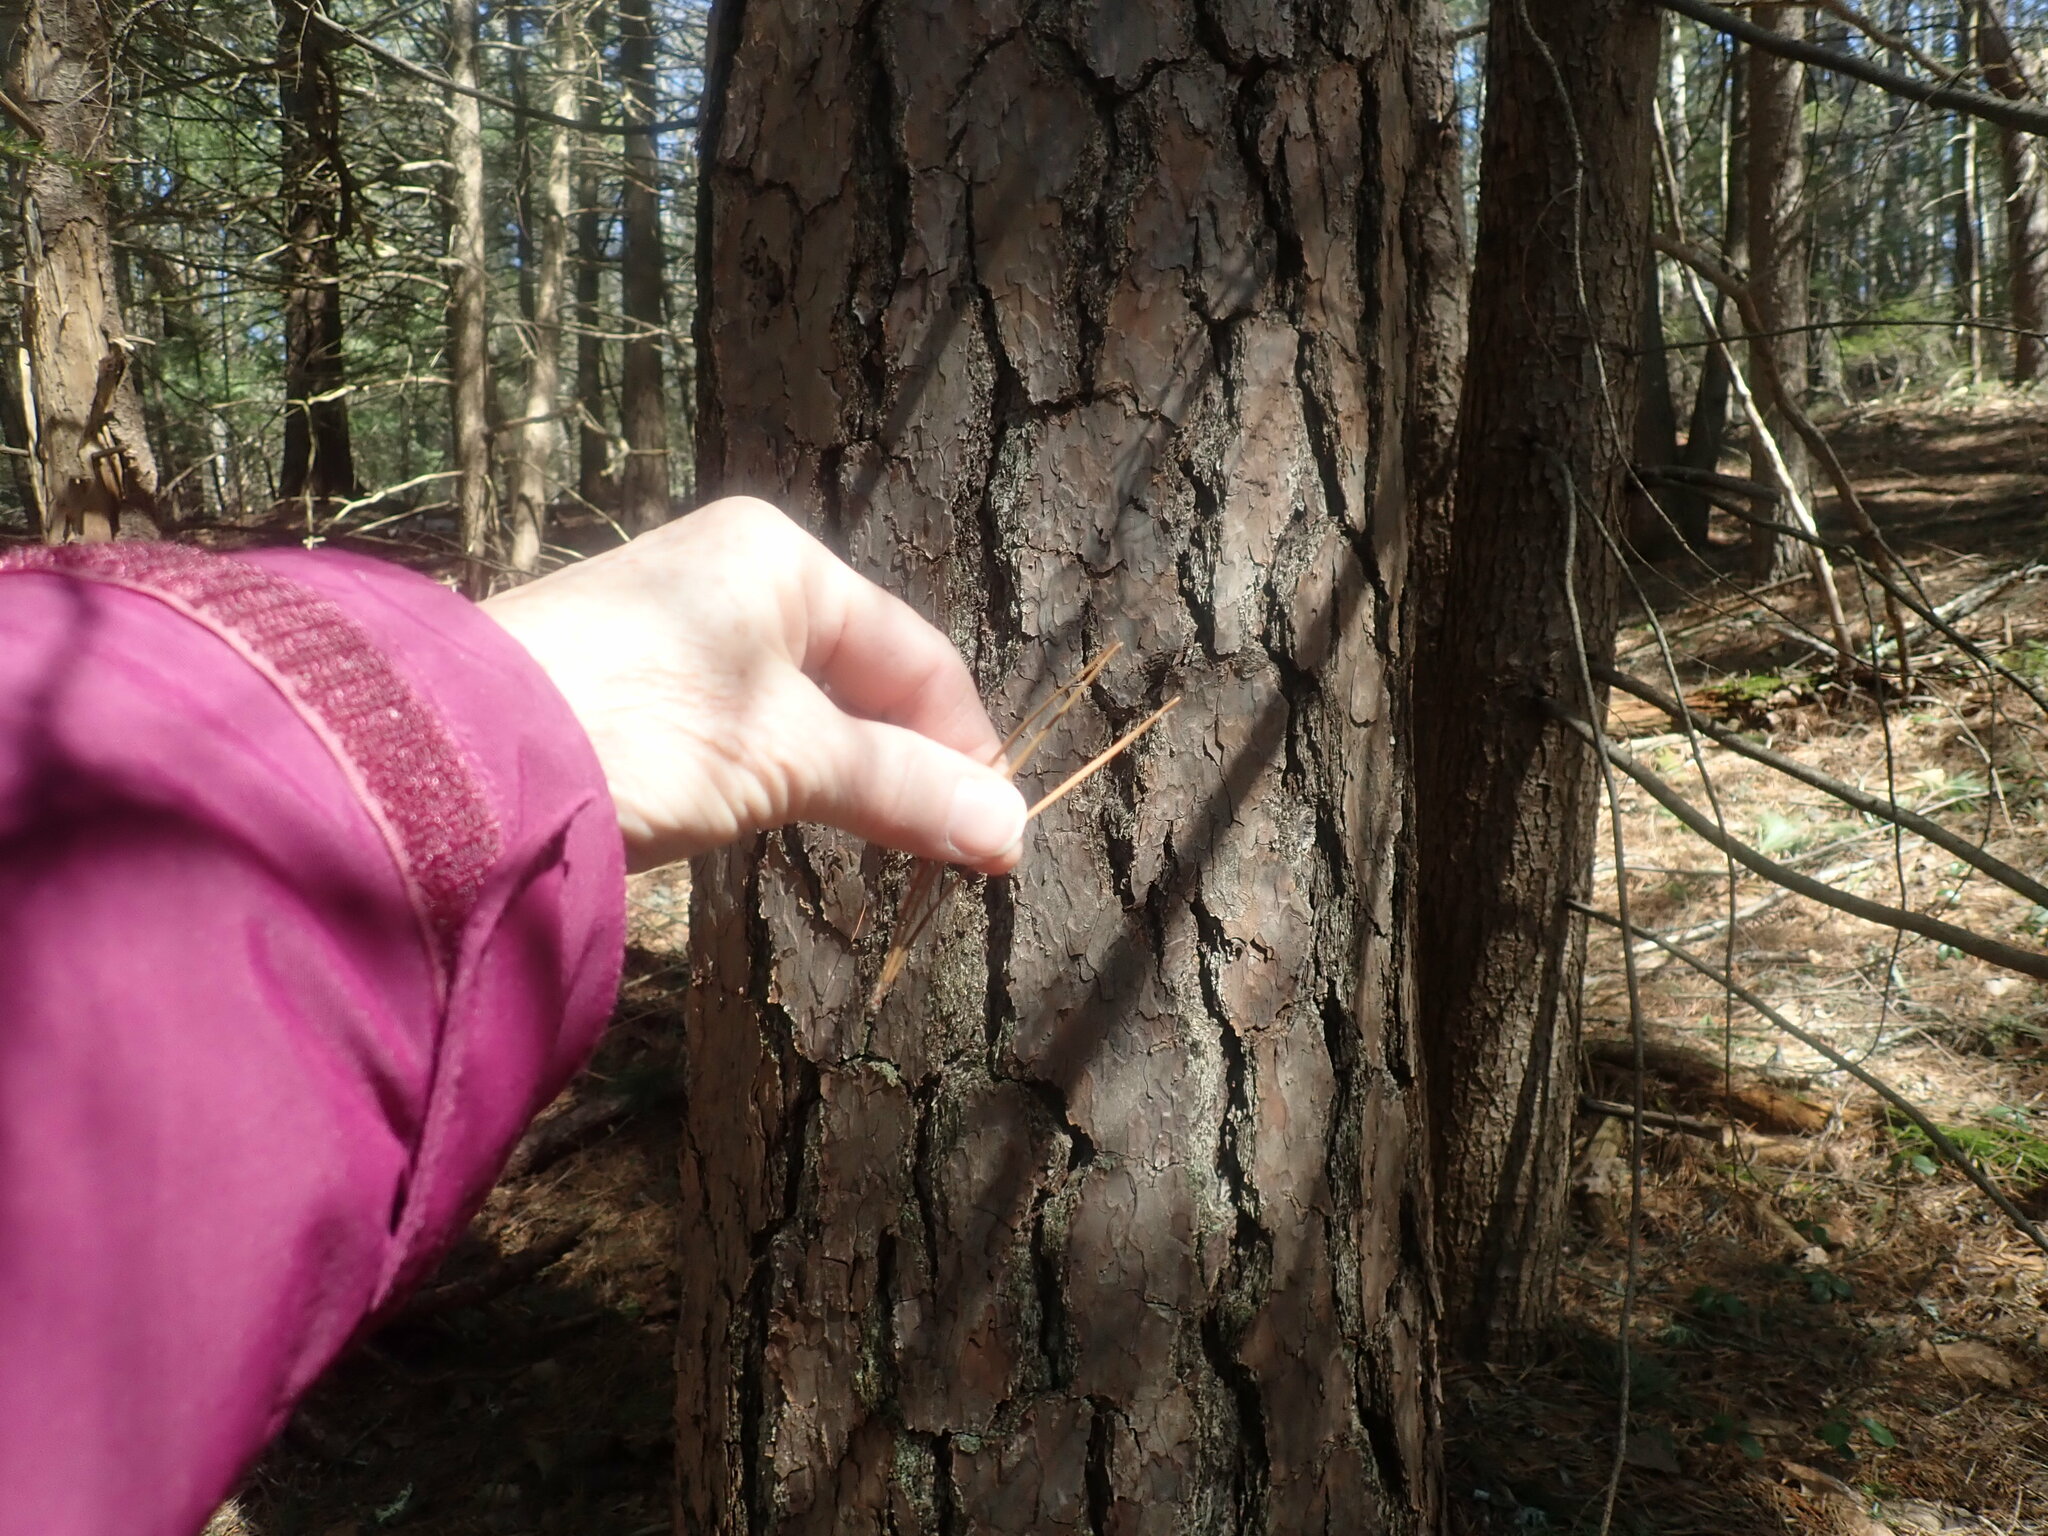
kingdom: Plantae
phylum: Tracheophyta
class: Pinopsida
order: Pinales
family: Pinaceae
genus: Pinus
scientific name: Pinus rigida
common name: Pitch pine
